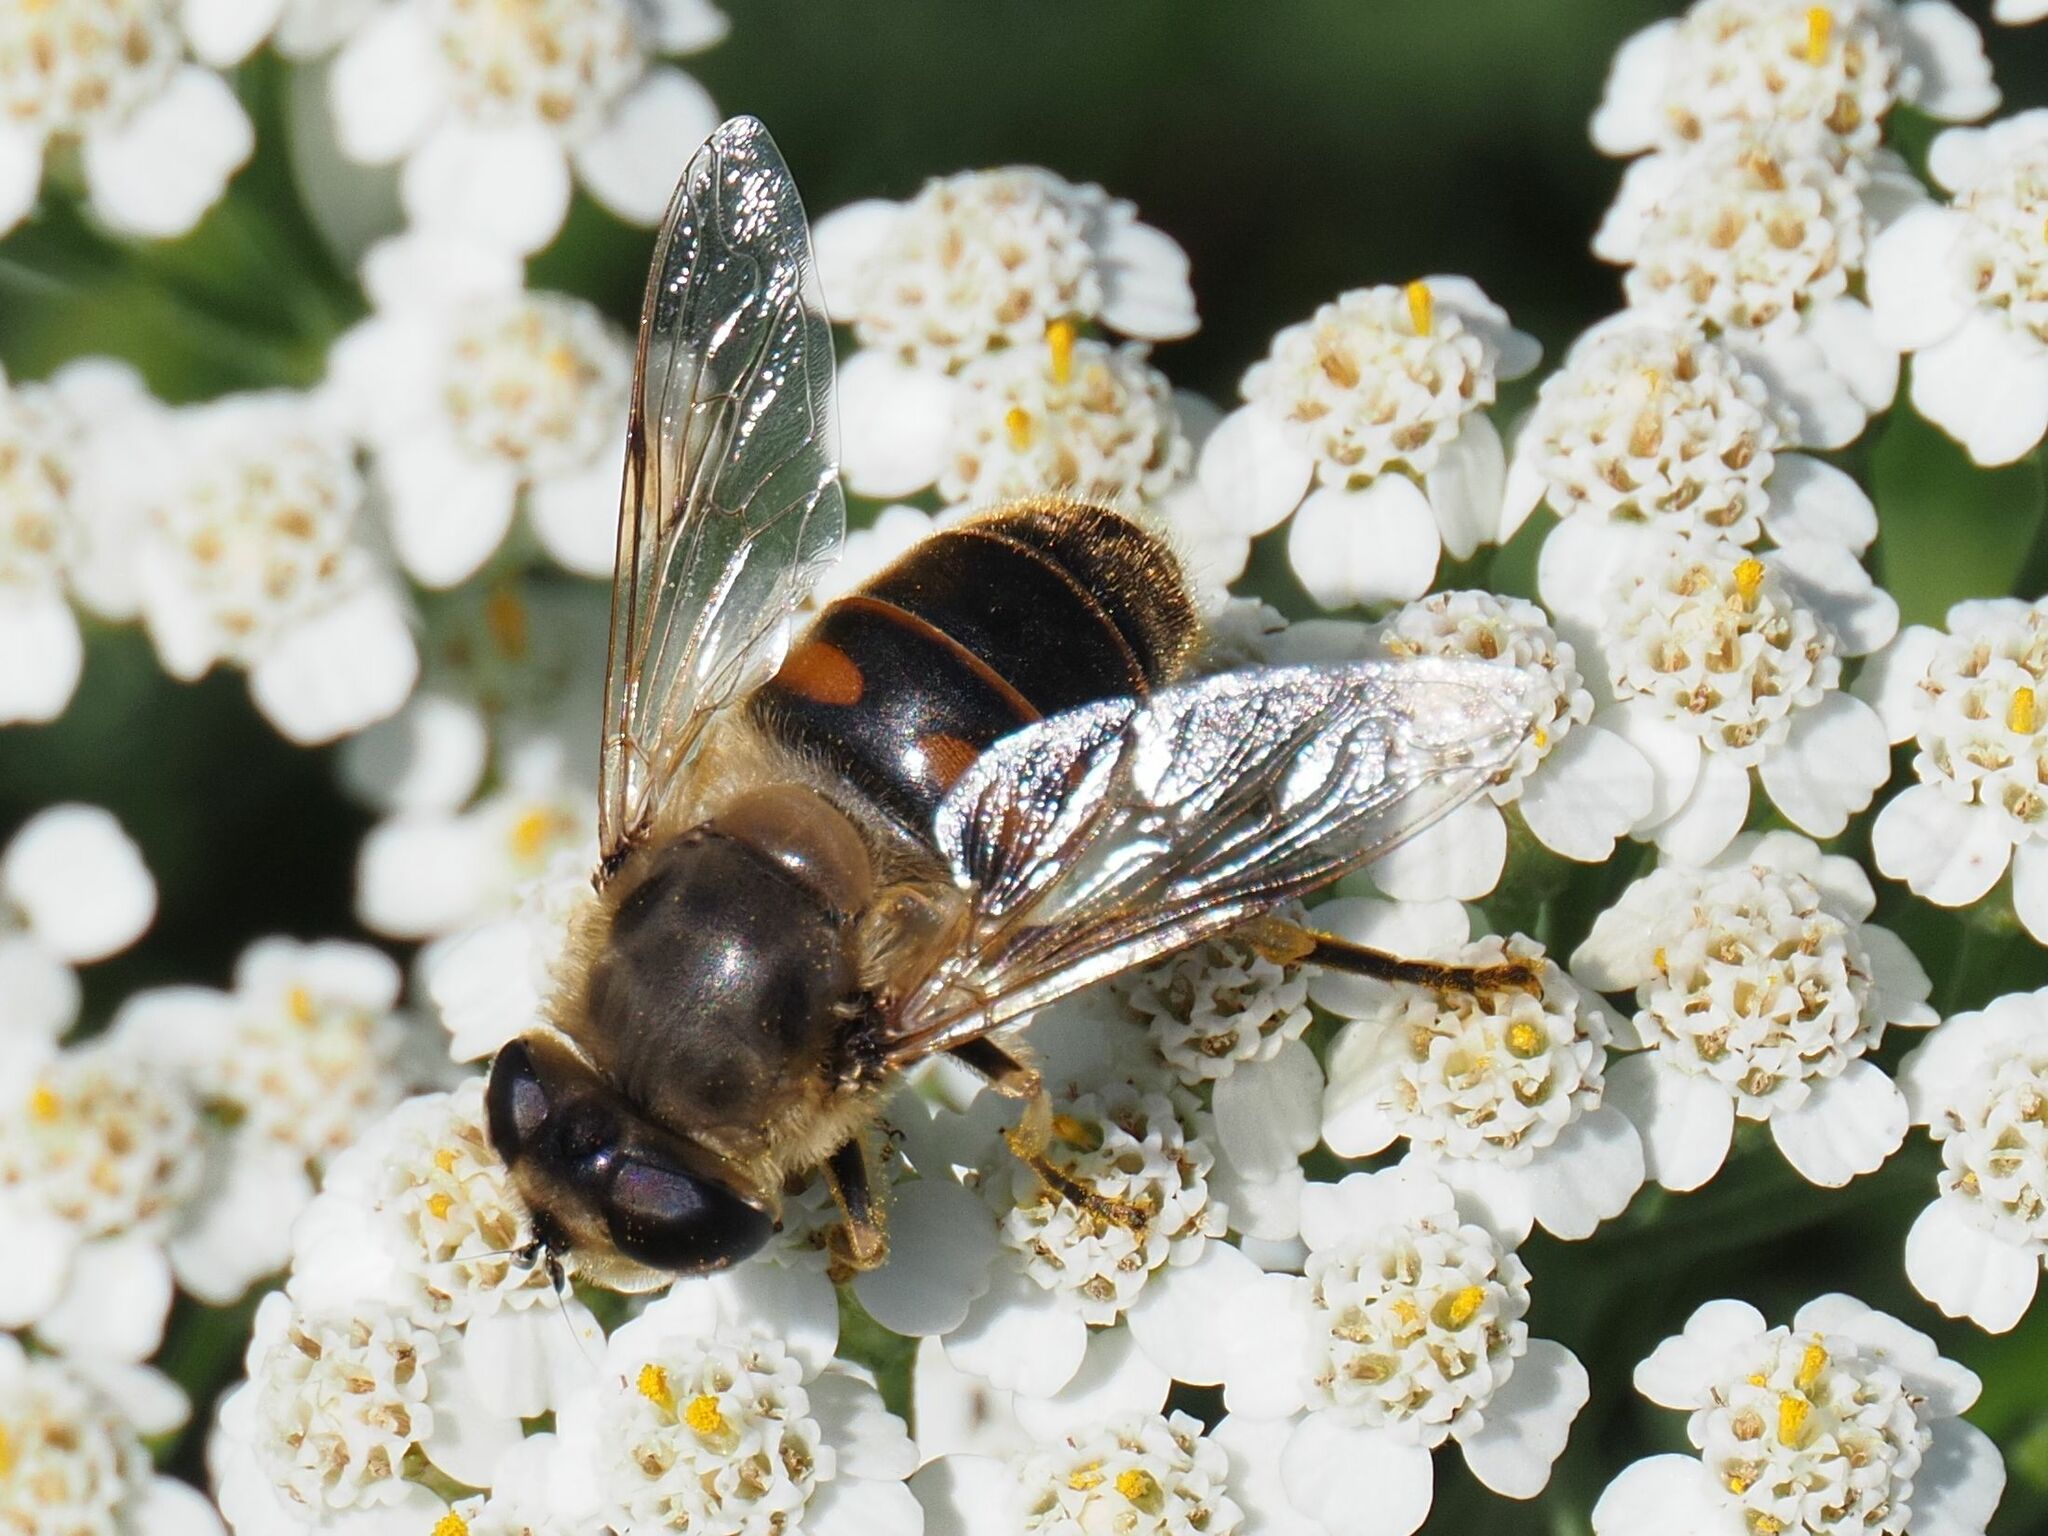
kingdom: Animalia
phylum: Arthropoda
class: Insecta
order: Diptera
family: Syrphidae
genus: Eristalis
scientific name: Eristalis tenax
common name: Drone fly
